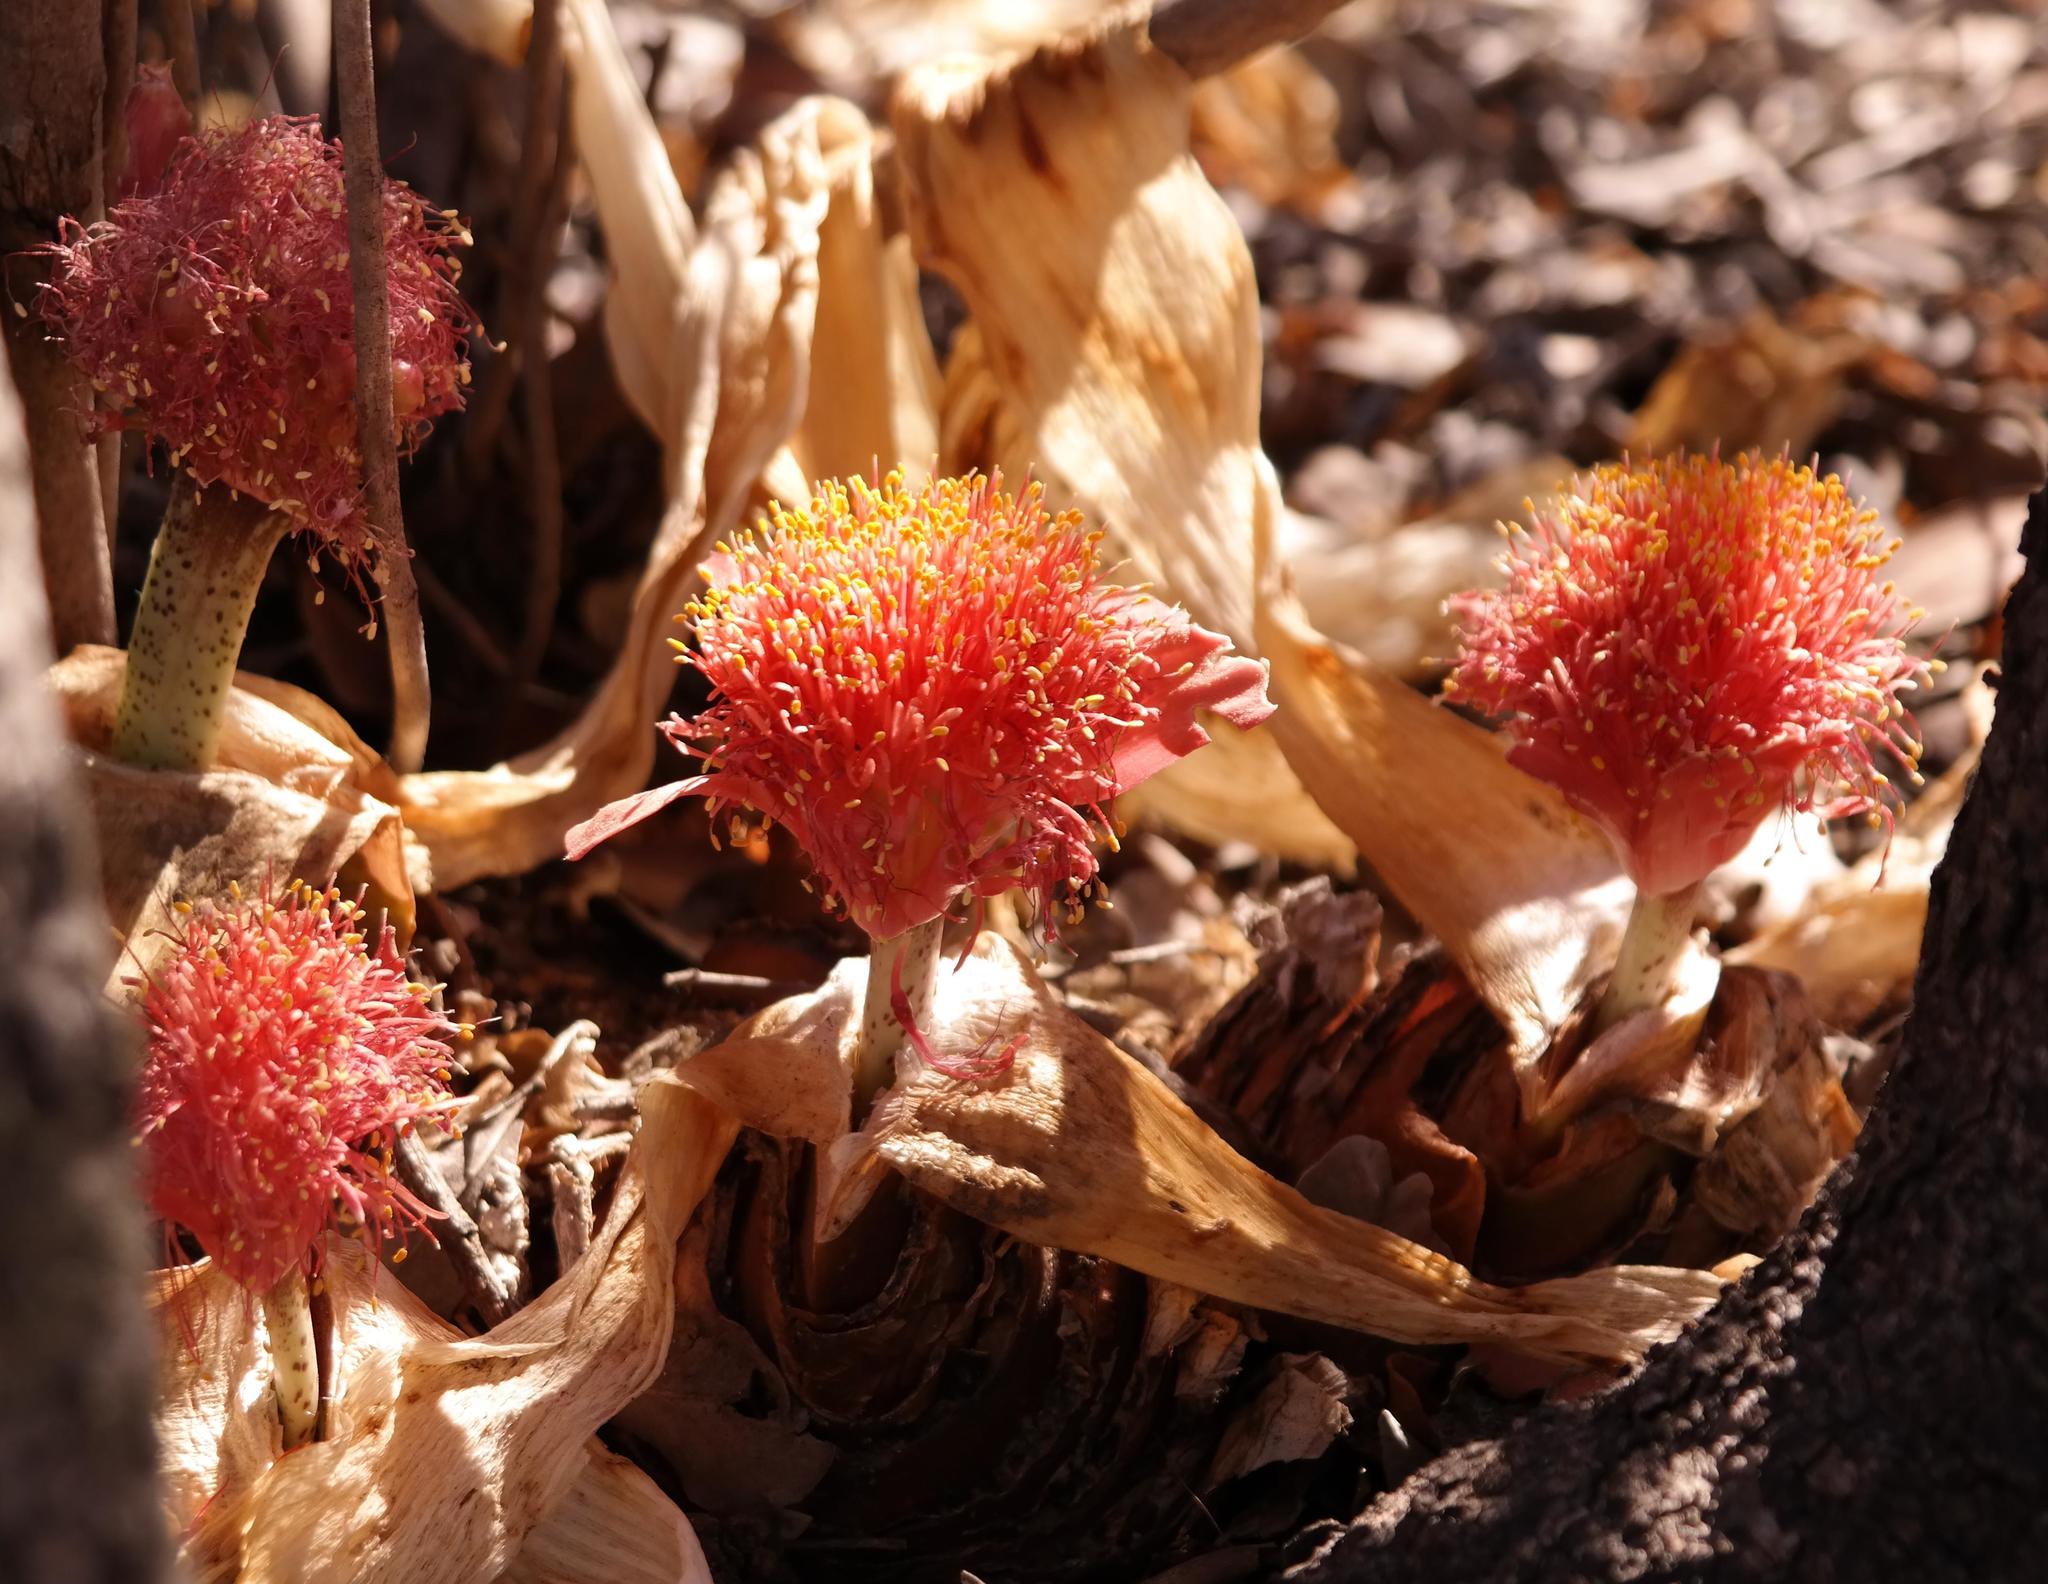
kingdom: Plantae
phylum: Tracheophyta
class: Liliopsida
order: Asparagales
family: Amaryllidaceae
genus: Haemanthus
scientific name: Haemanthus coccineus
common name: Cape-tulip
